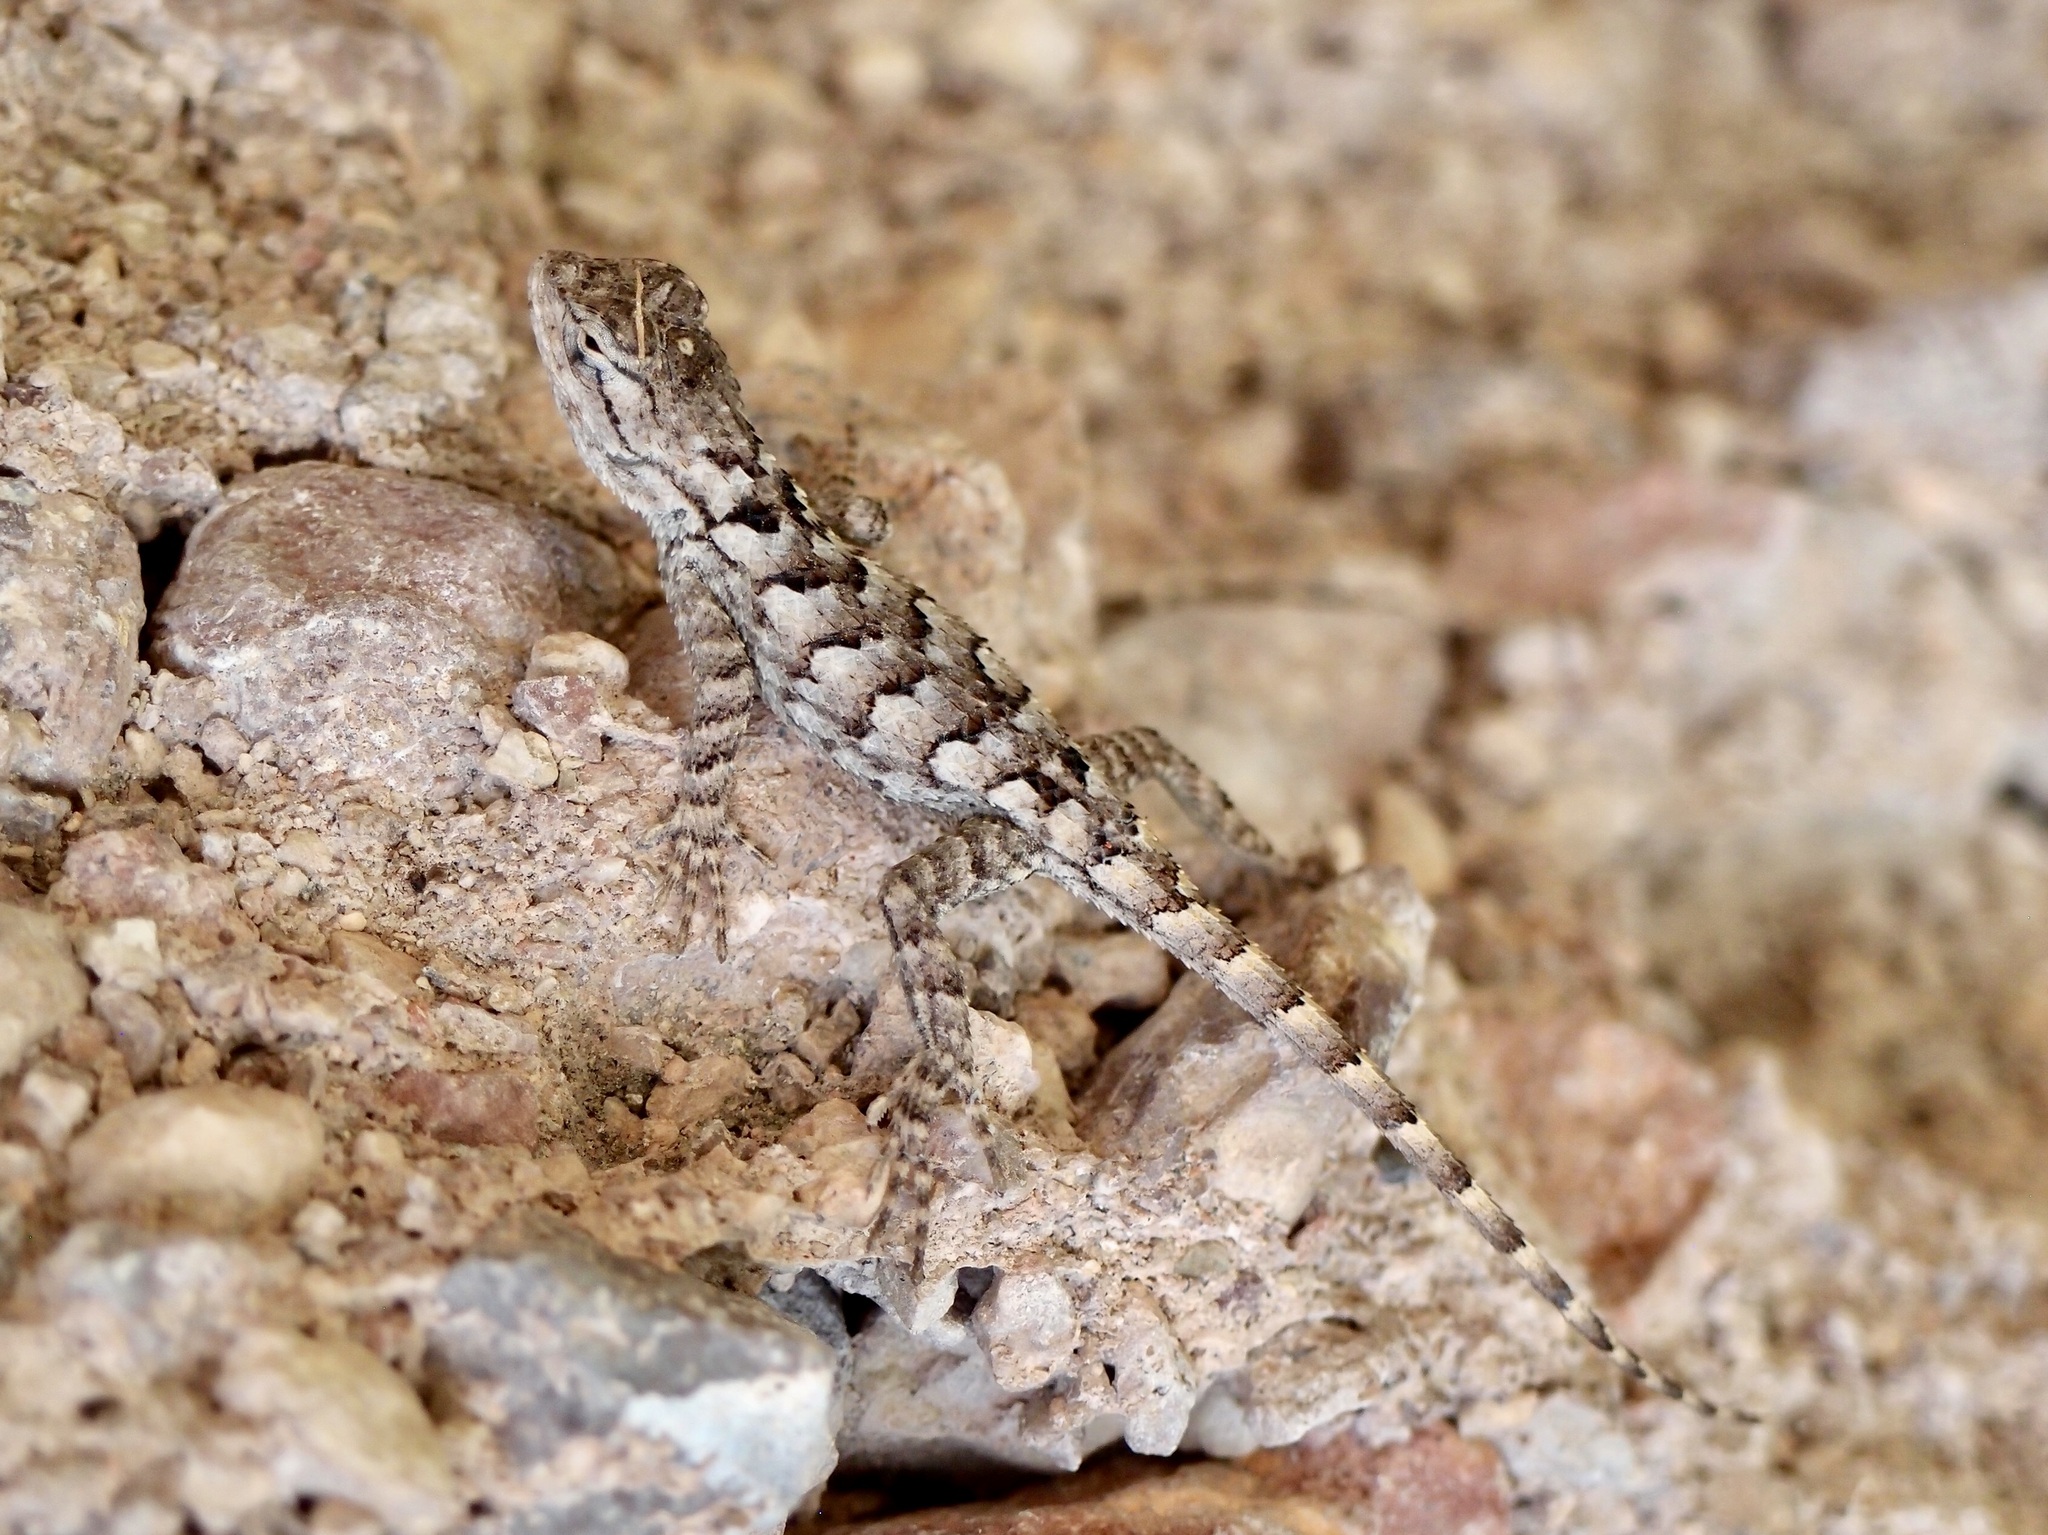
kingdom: Animalia
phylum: Chordata
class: Squamata
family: Phrynosomatidae
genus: Sceloporus
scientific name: Sceloporus clarkii
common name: Clark's spiny lizard
